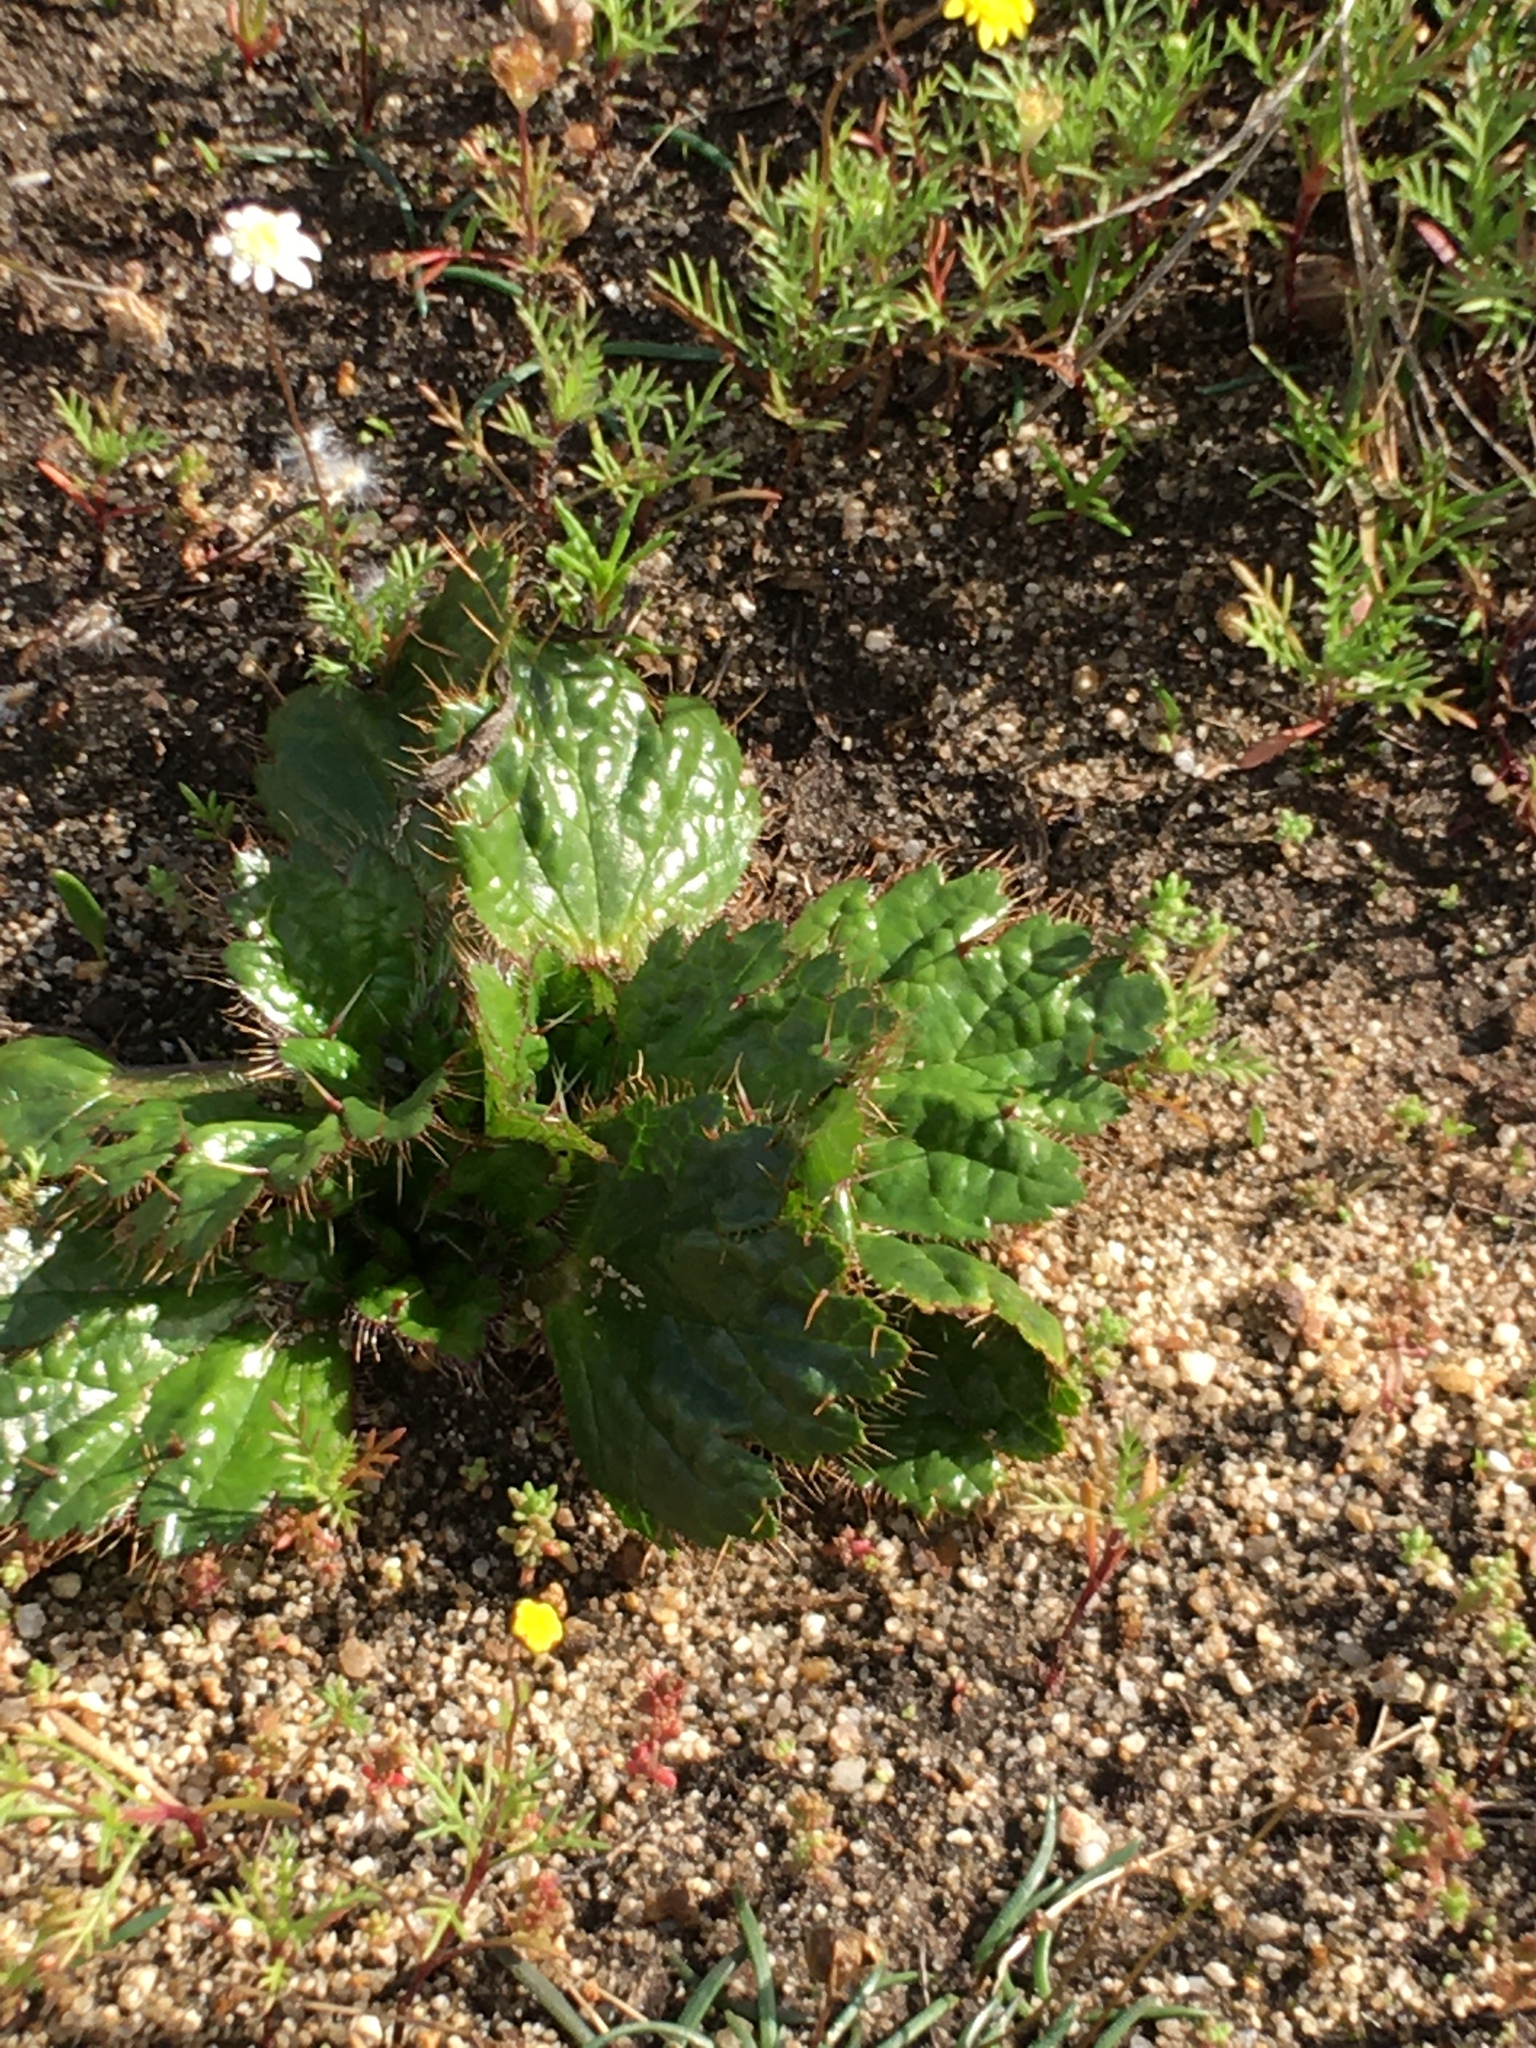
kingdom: Plantae
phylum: Tracheophyta
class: Magnoliopsida
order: Apiales
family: Apiaceae
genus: Arctopus
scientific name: Arctopus echinatus
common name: Platdoring
